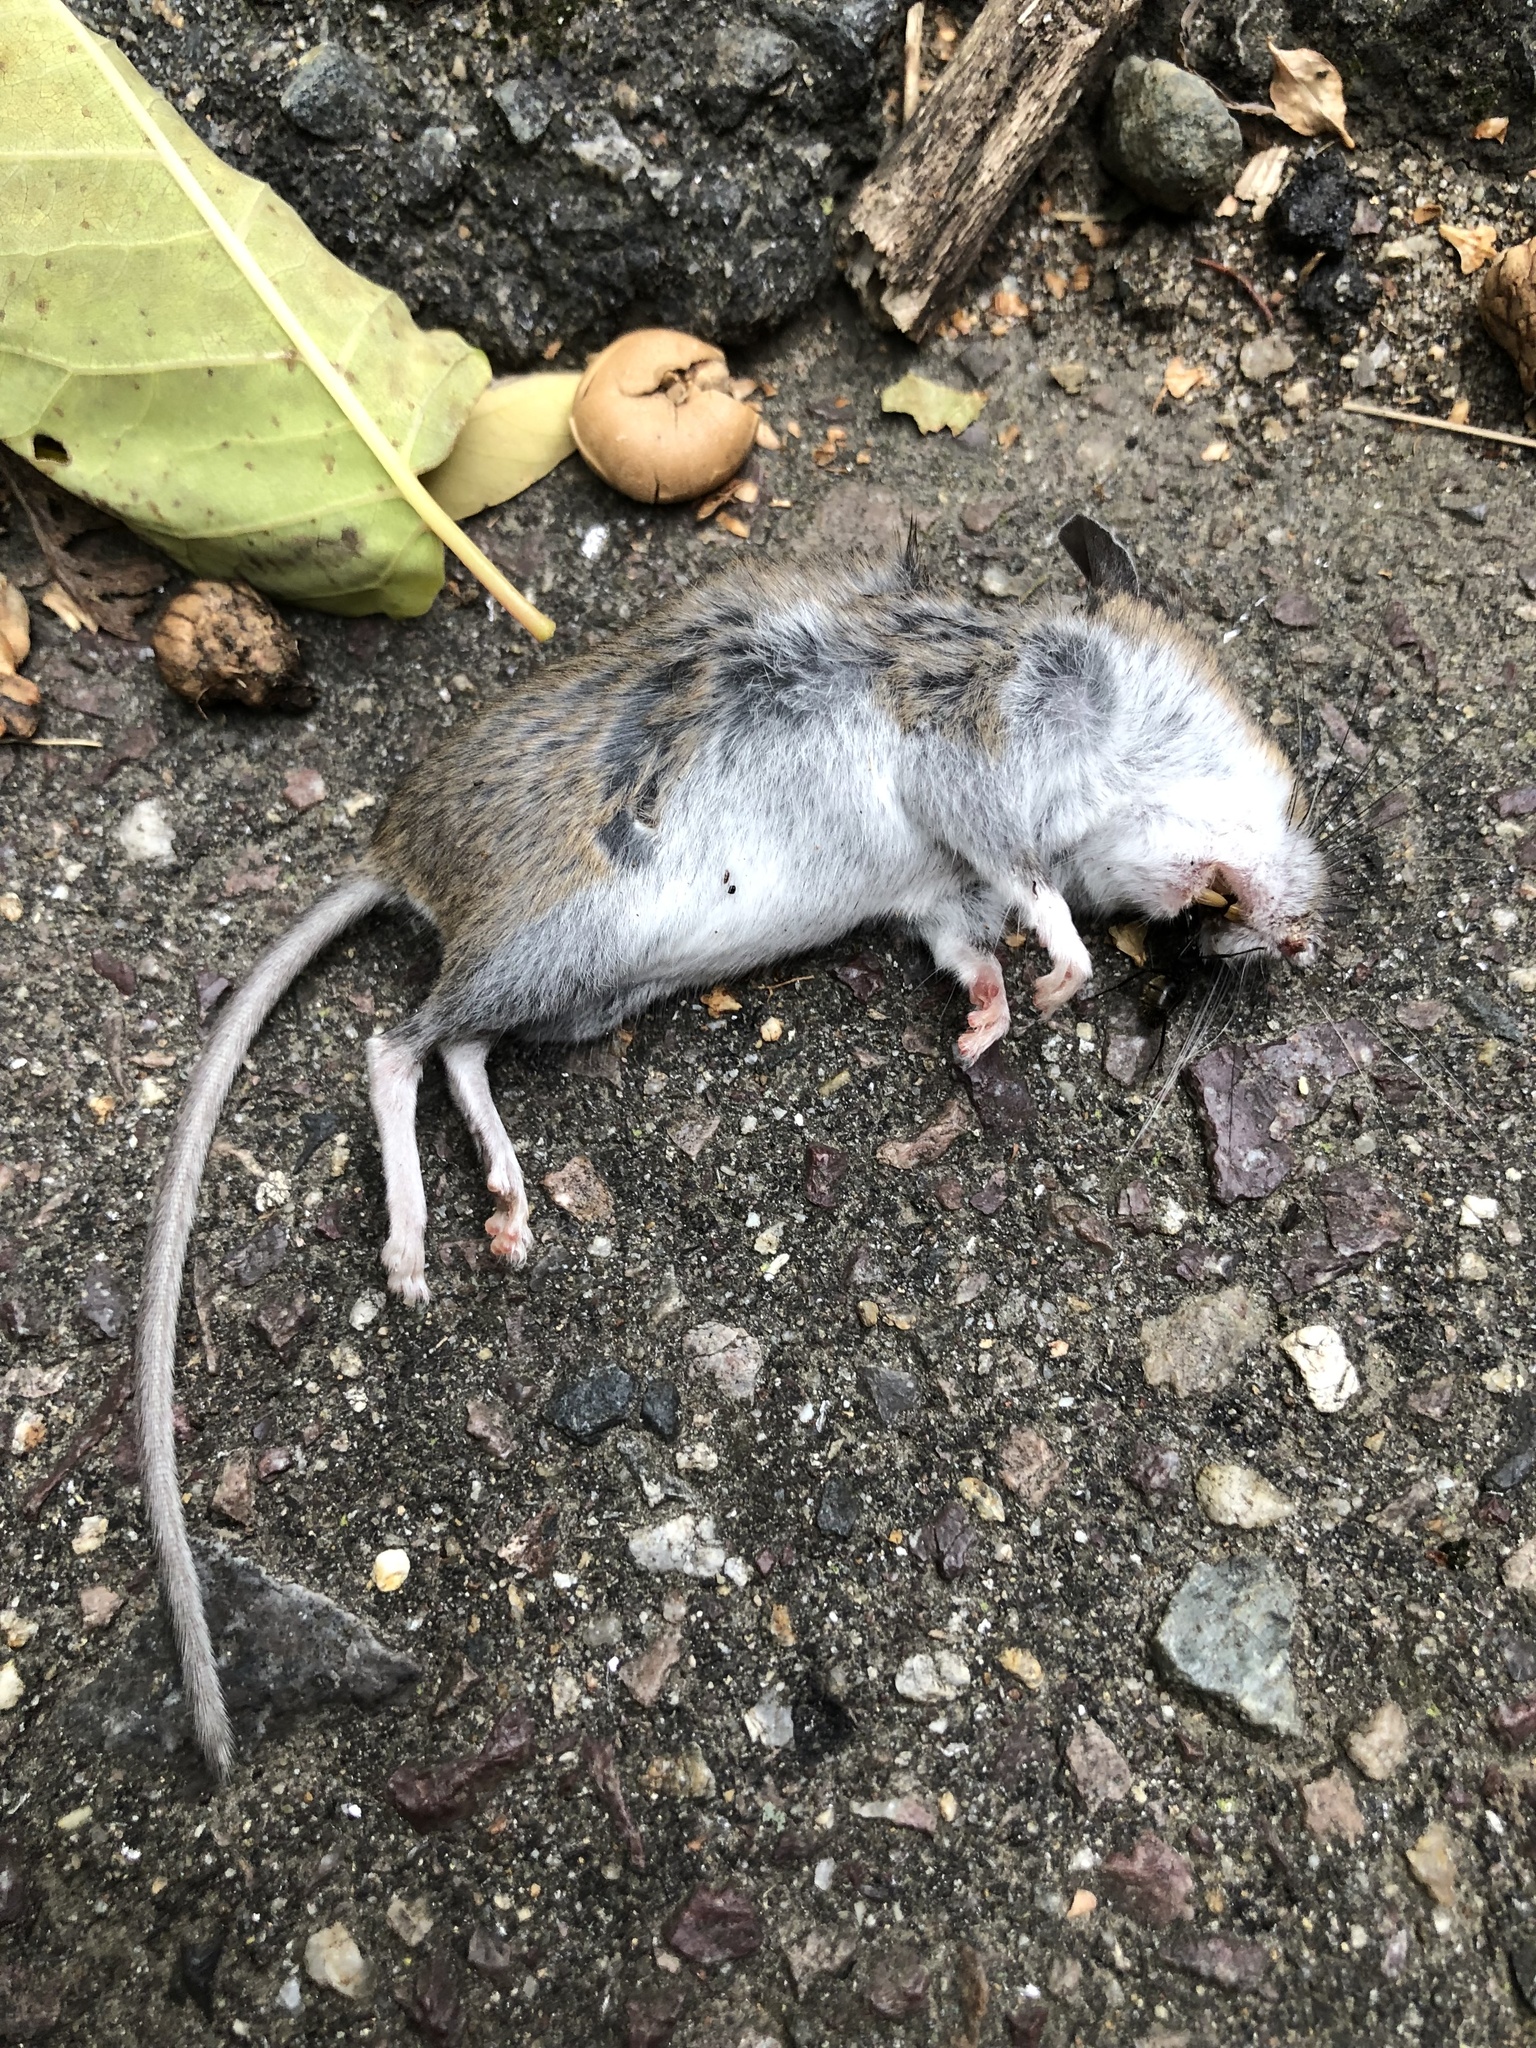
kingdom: Animalia
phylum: Chordata
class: Mammalia
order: Rodentia
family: Cricetidae
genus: Peromyscus
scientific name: Peromyscus leucopus
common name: White-footed deermouse
